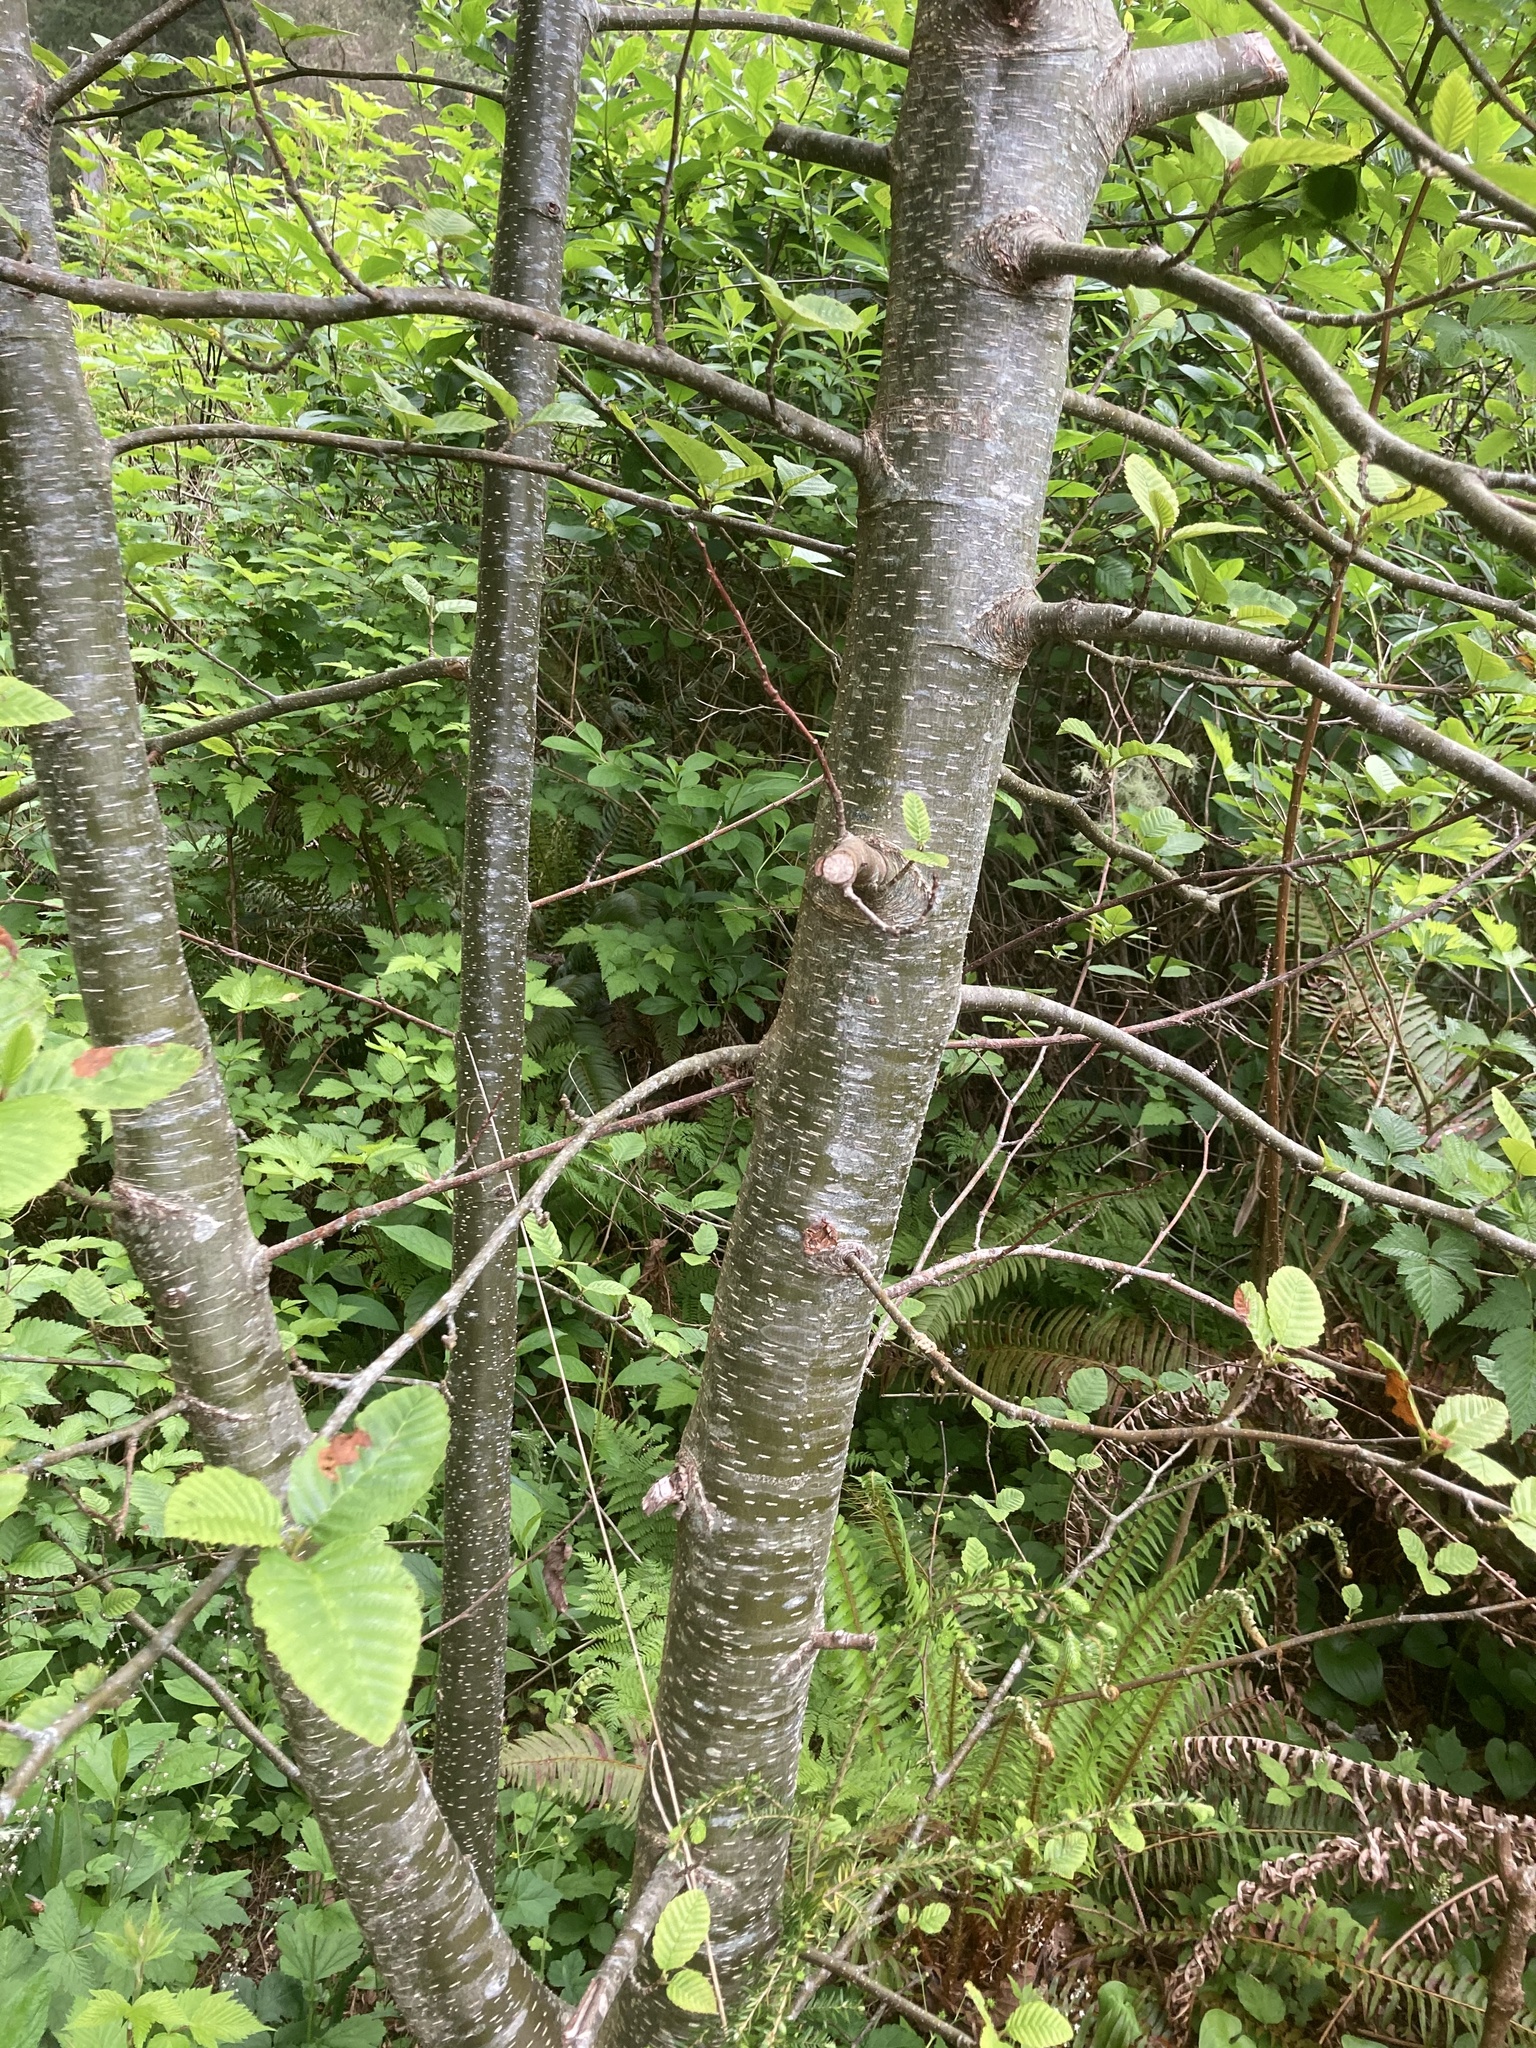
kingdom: Plantae
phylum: Tracheophyta
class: Magnoliopsida
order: Fagales
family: Betulaceae
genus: Alnus
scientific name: Alnus rubra
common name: Red alder
